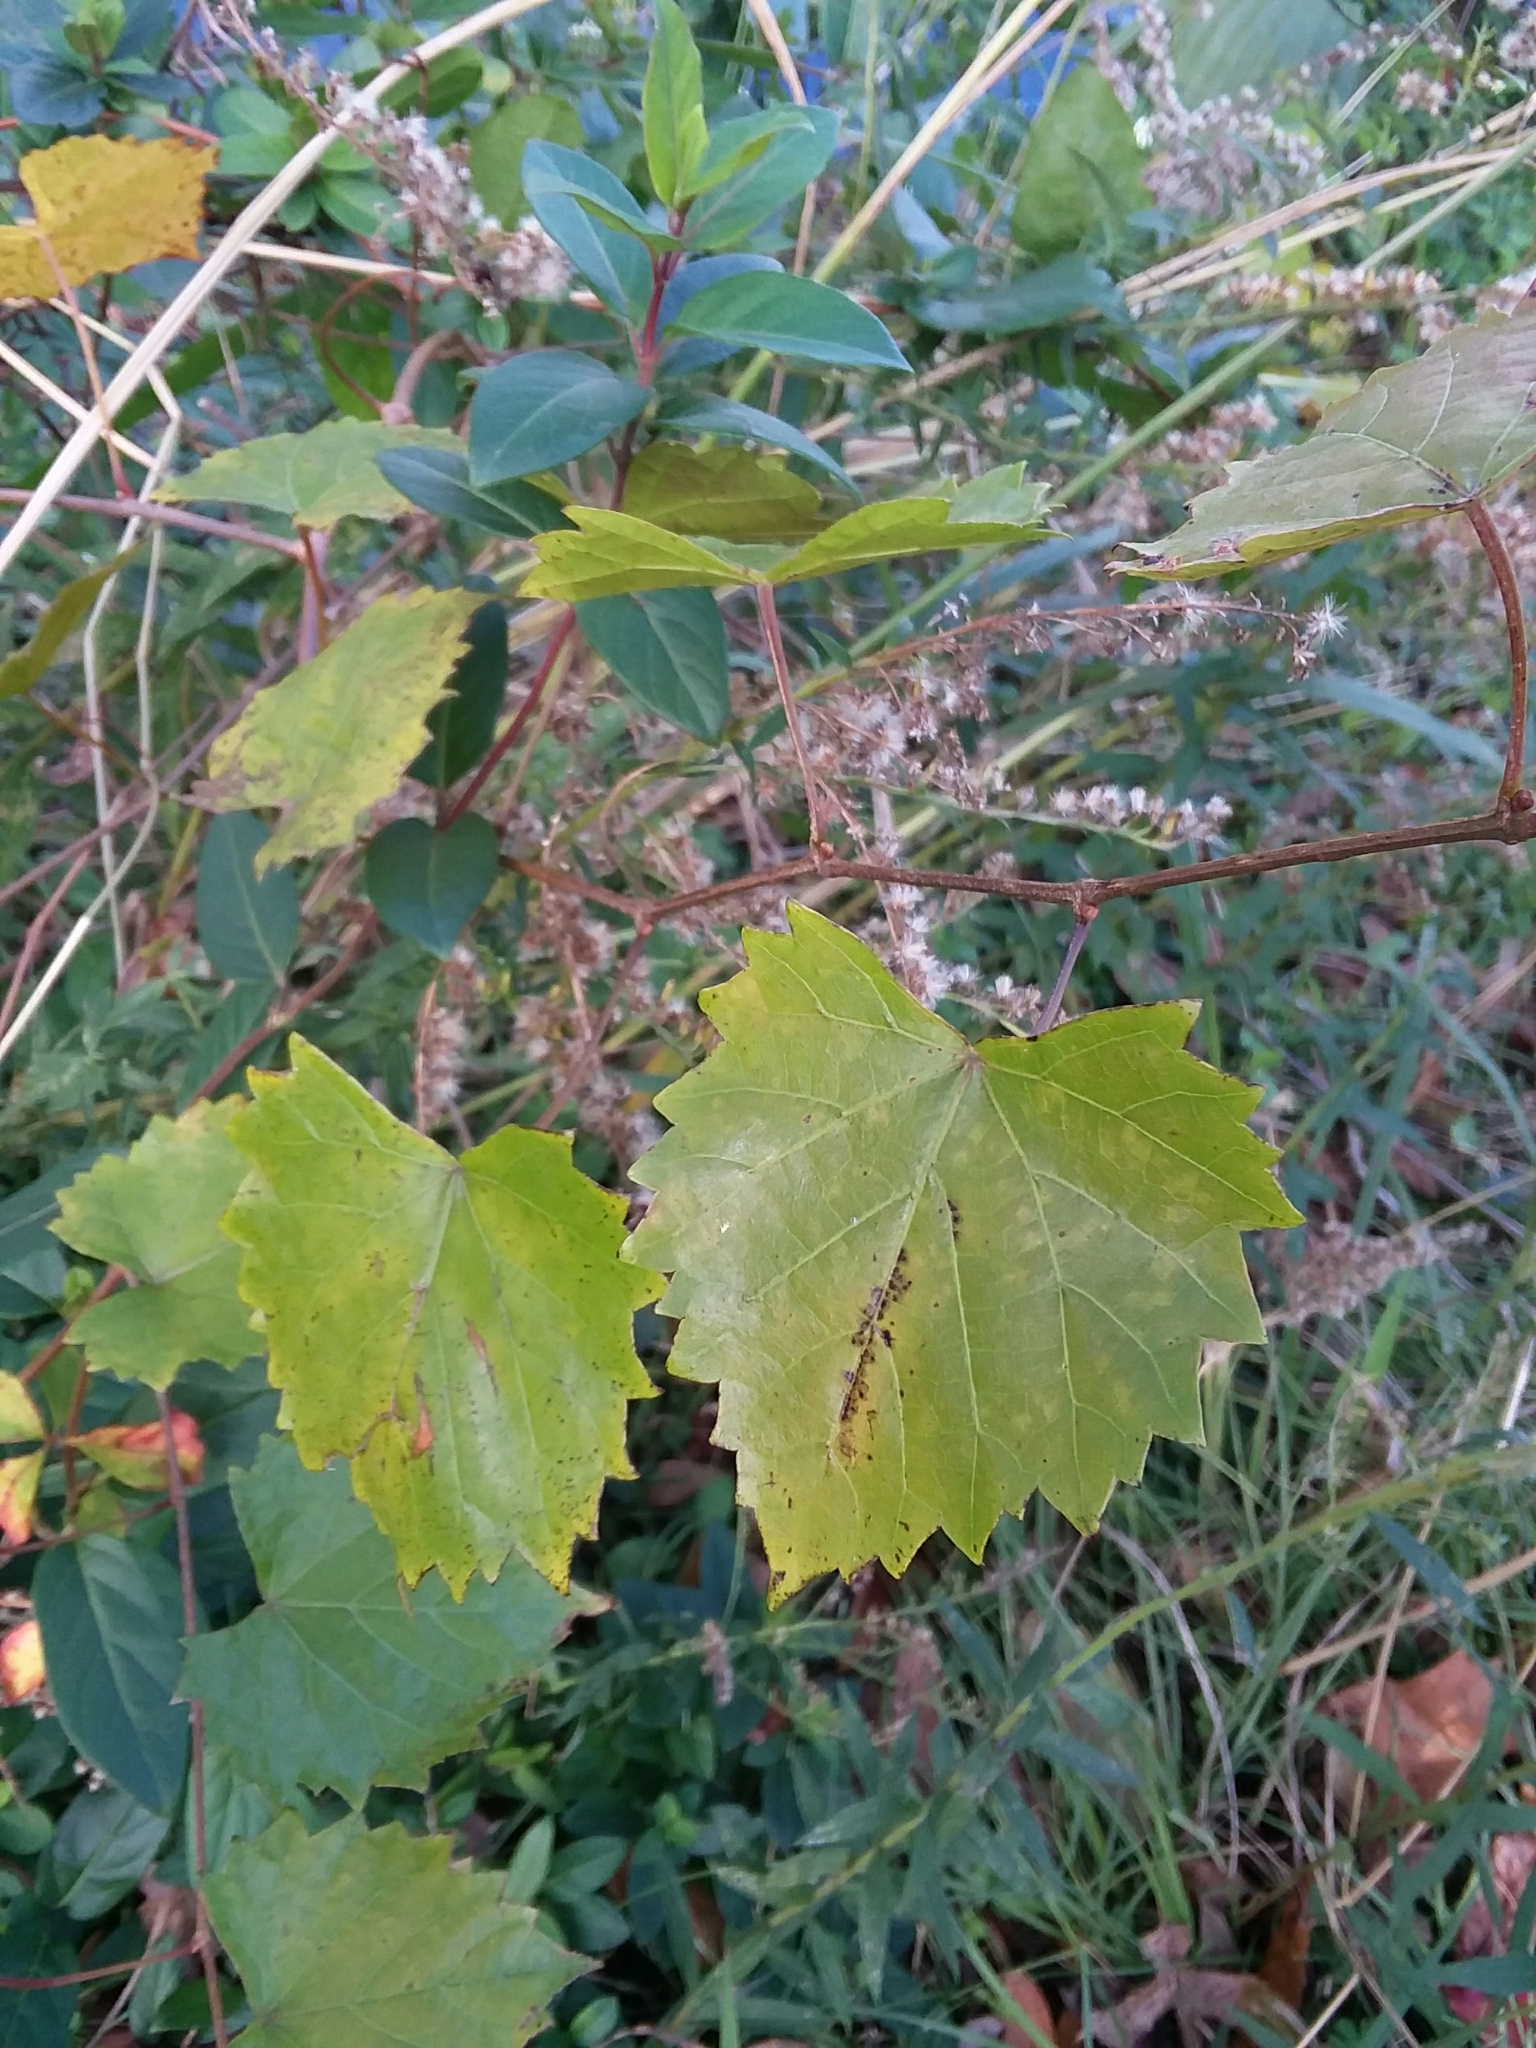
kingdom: Plantae
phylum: Tracheophyta
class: Magnoliopsida
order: Vitales
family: Vitaceae
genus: Vitis
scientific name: Vitis rotundifolia
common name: Muscadine grape
